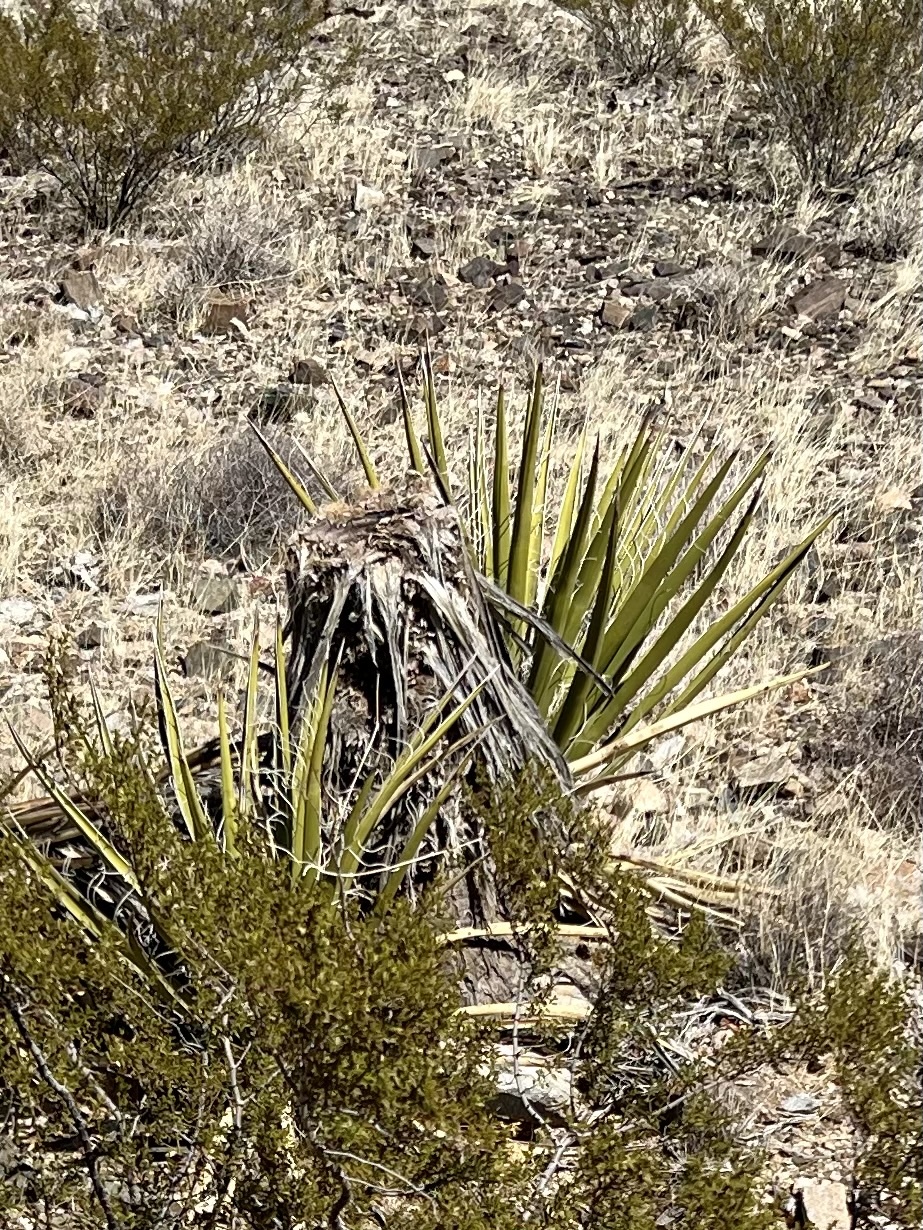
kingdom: Plantae
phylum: Tracheophyta
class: Liliopsida
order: Asparagales
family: Asparagaceae
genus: Yucca
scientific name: Yucca schidigera
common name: Mojave yucca
